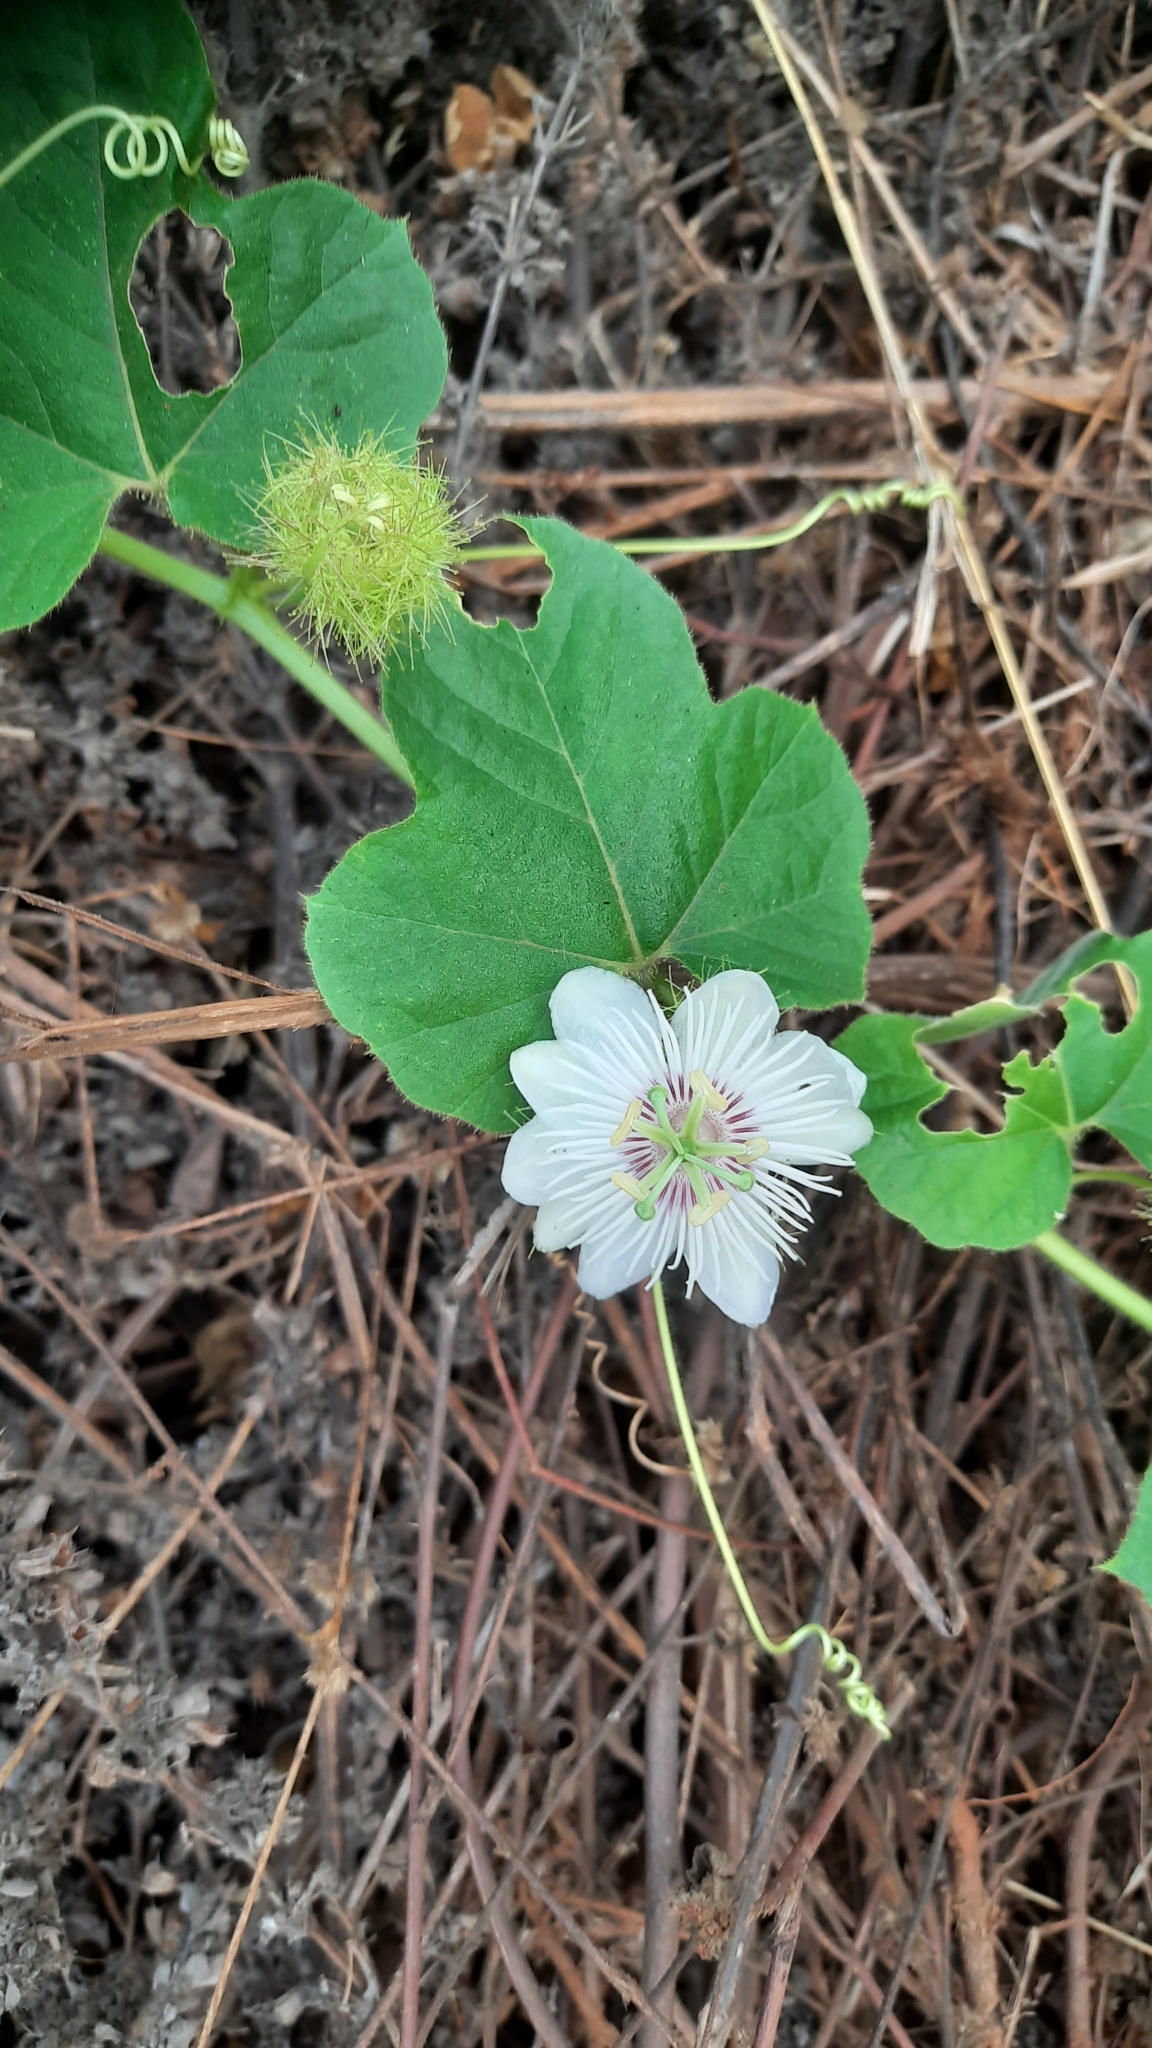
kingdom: Plantae
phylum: Tracheophyta
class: Magnoliopsida
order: Malpighiales
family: Passifloraceae
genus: Passiflora
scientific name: Passiflora foetida
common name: Fetid passionflower
